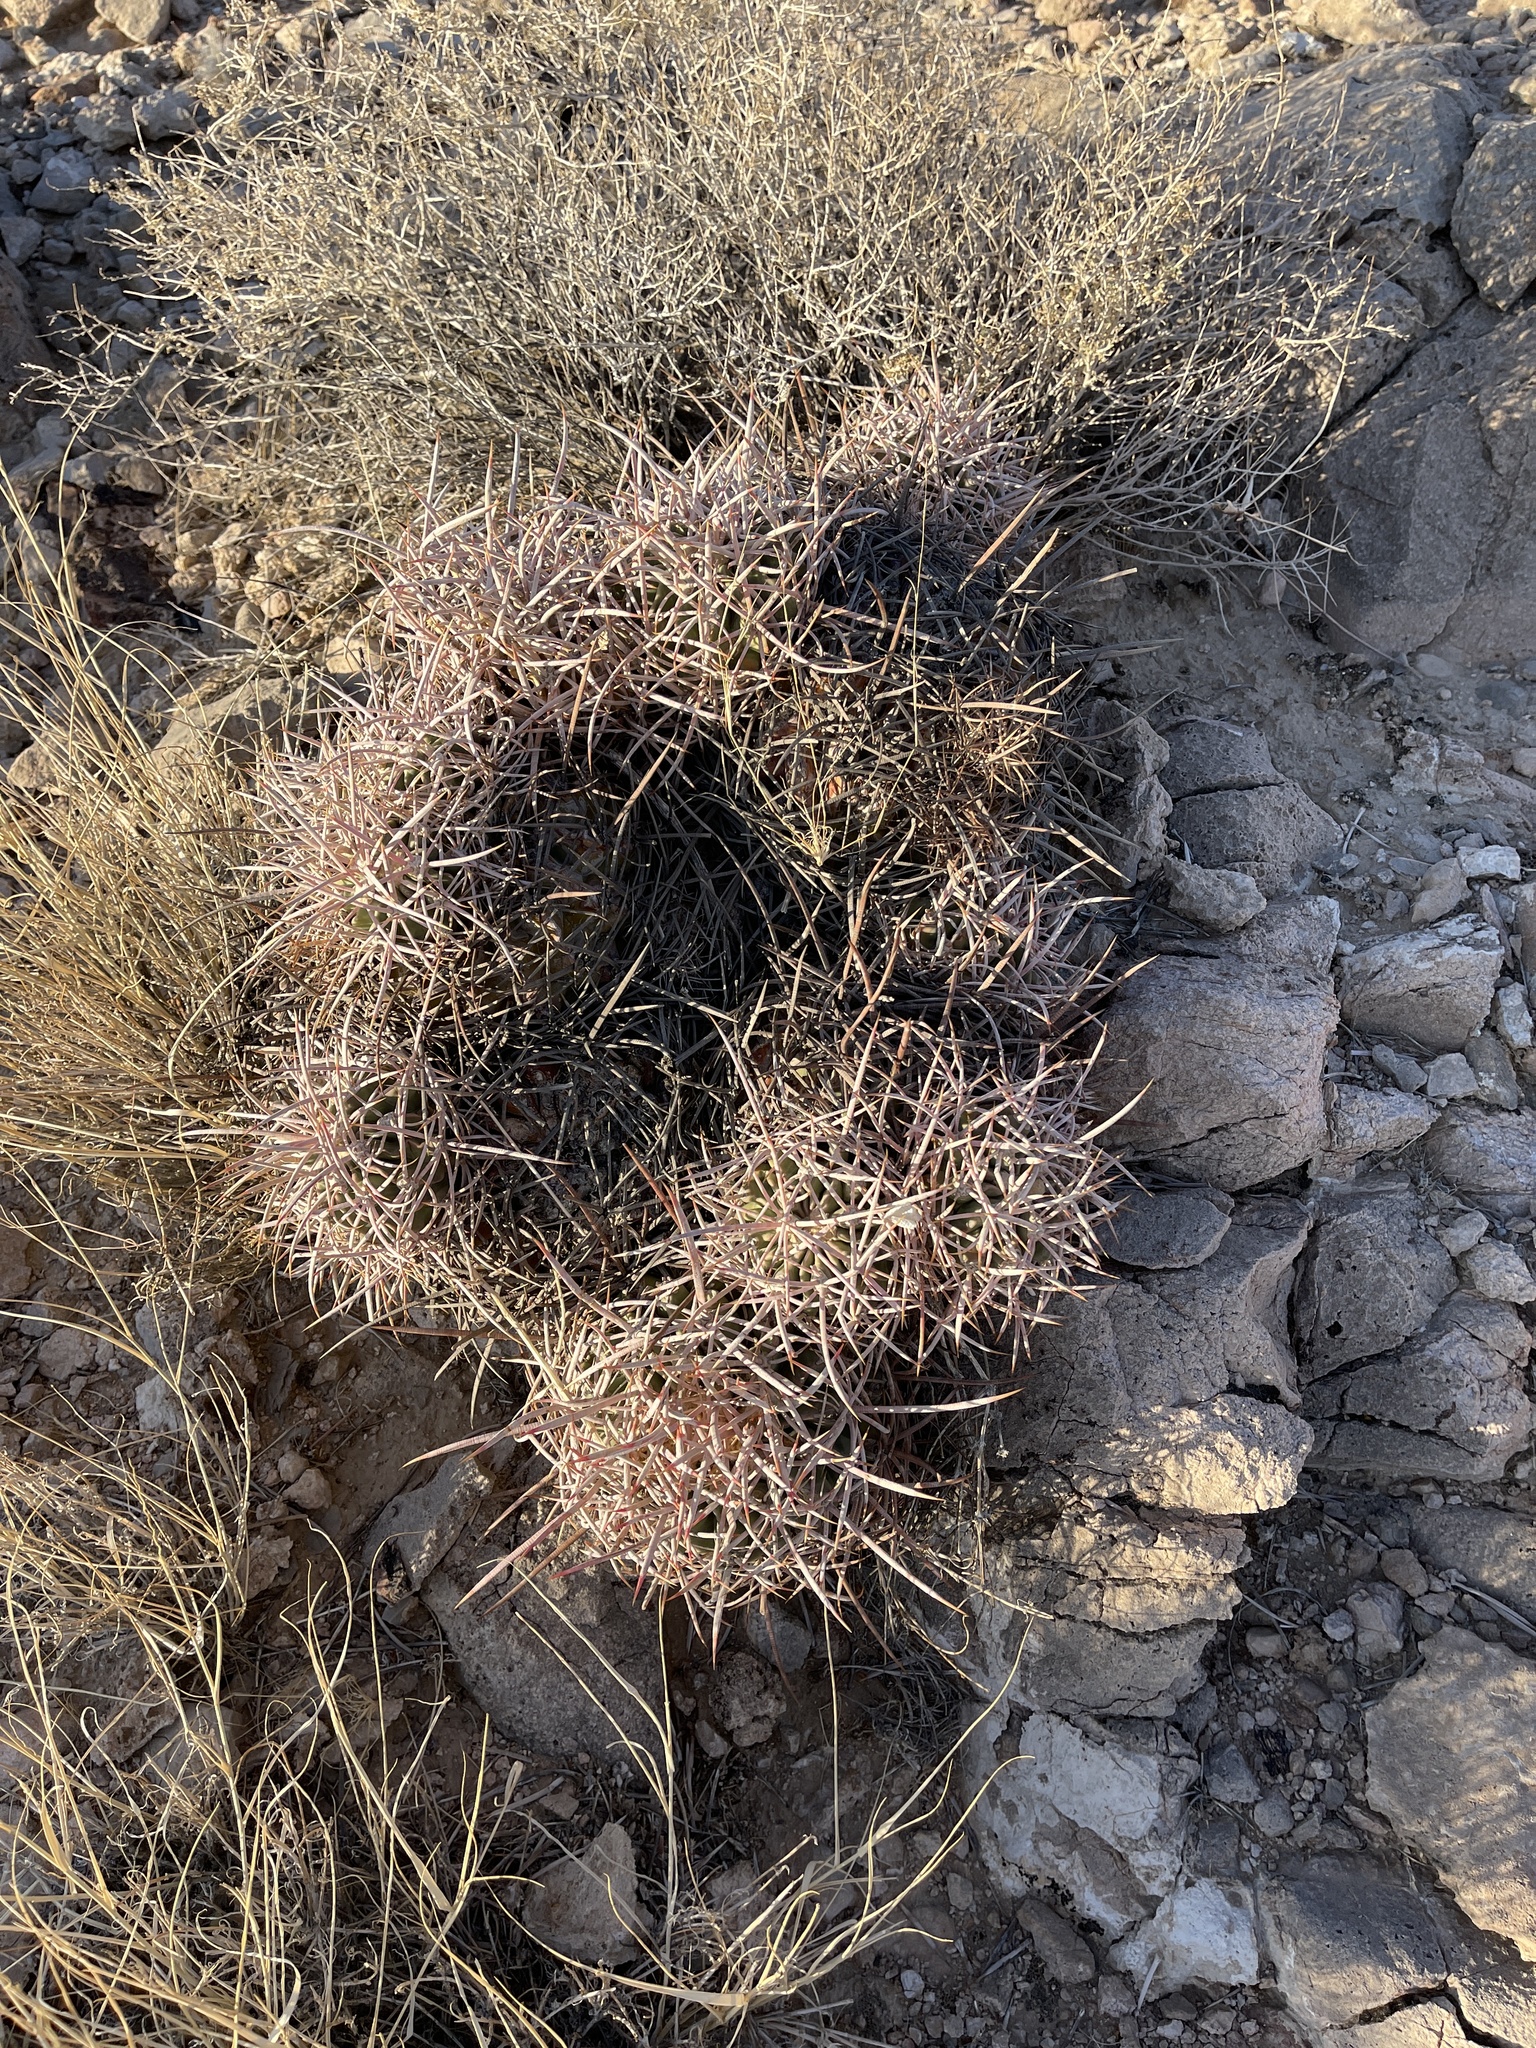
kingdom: Plantae
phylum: Tracheophyta
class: Magnoliopsida
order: Caryophyllales
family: Cactaceae
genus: Echinocactus
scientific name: Echinocactus polycephalus
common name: Cottontop cactus
